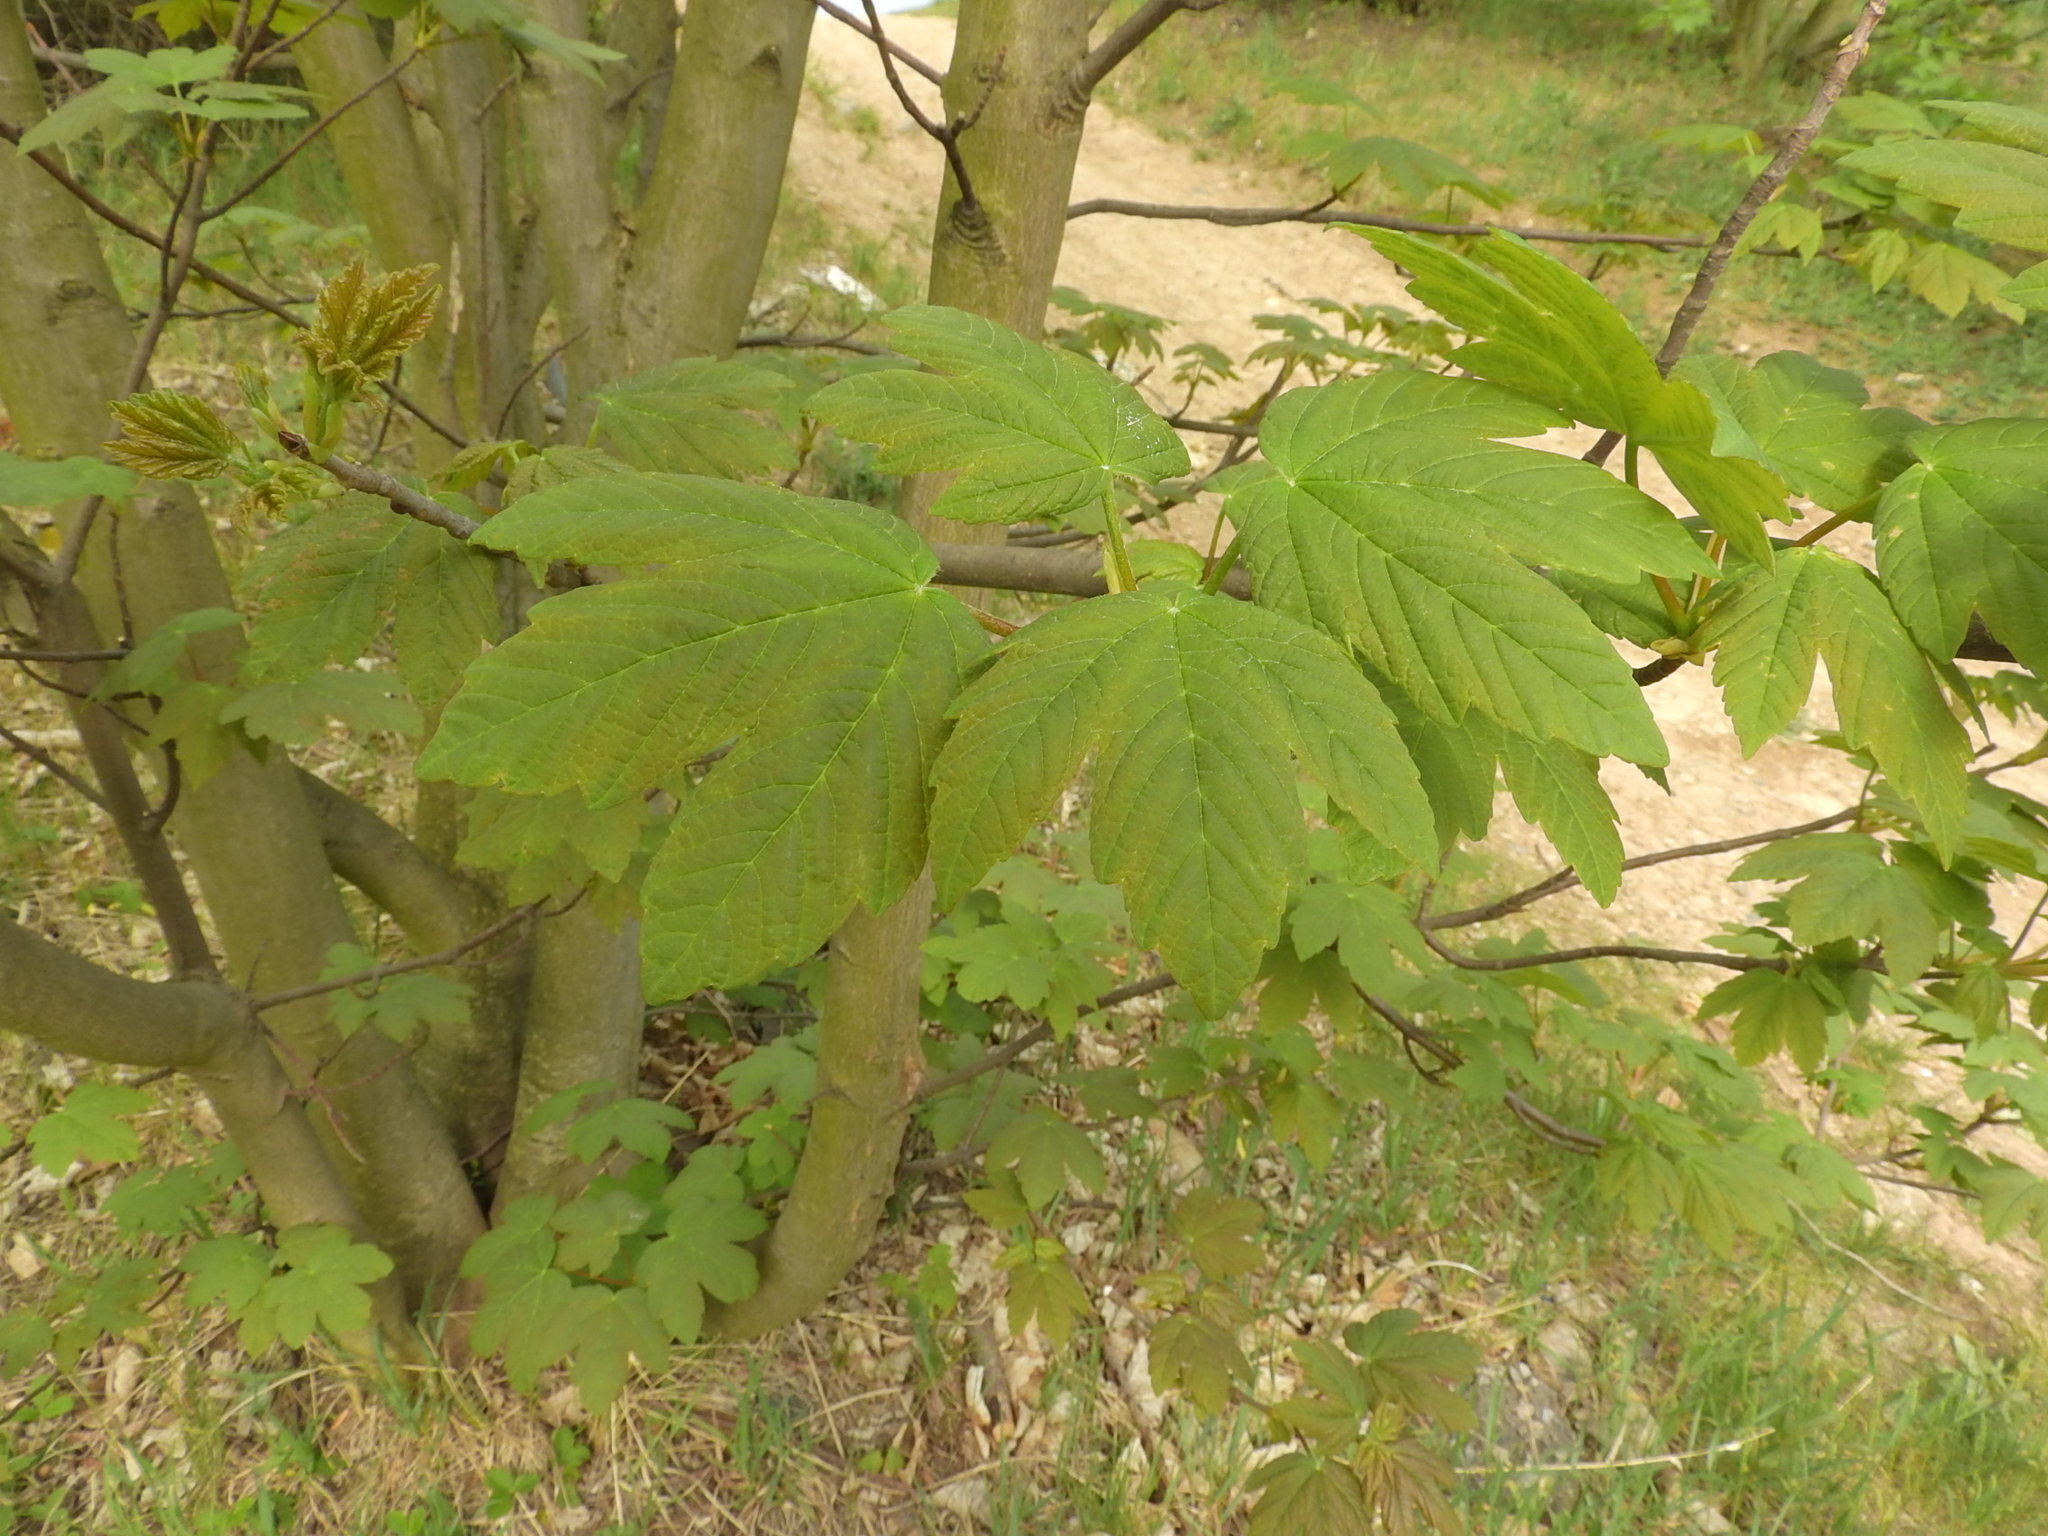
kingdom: Plantae
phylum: Tracheophyta
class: Magnoliopsida
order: Sapindales
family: Sapindaceae
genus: Acer
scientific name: Acer pseudoplatanus
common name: Sycamore
